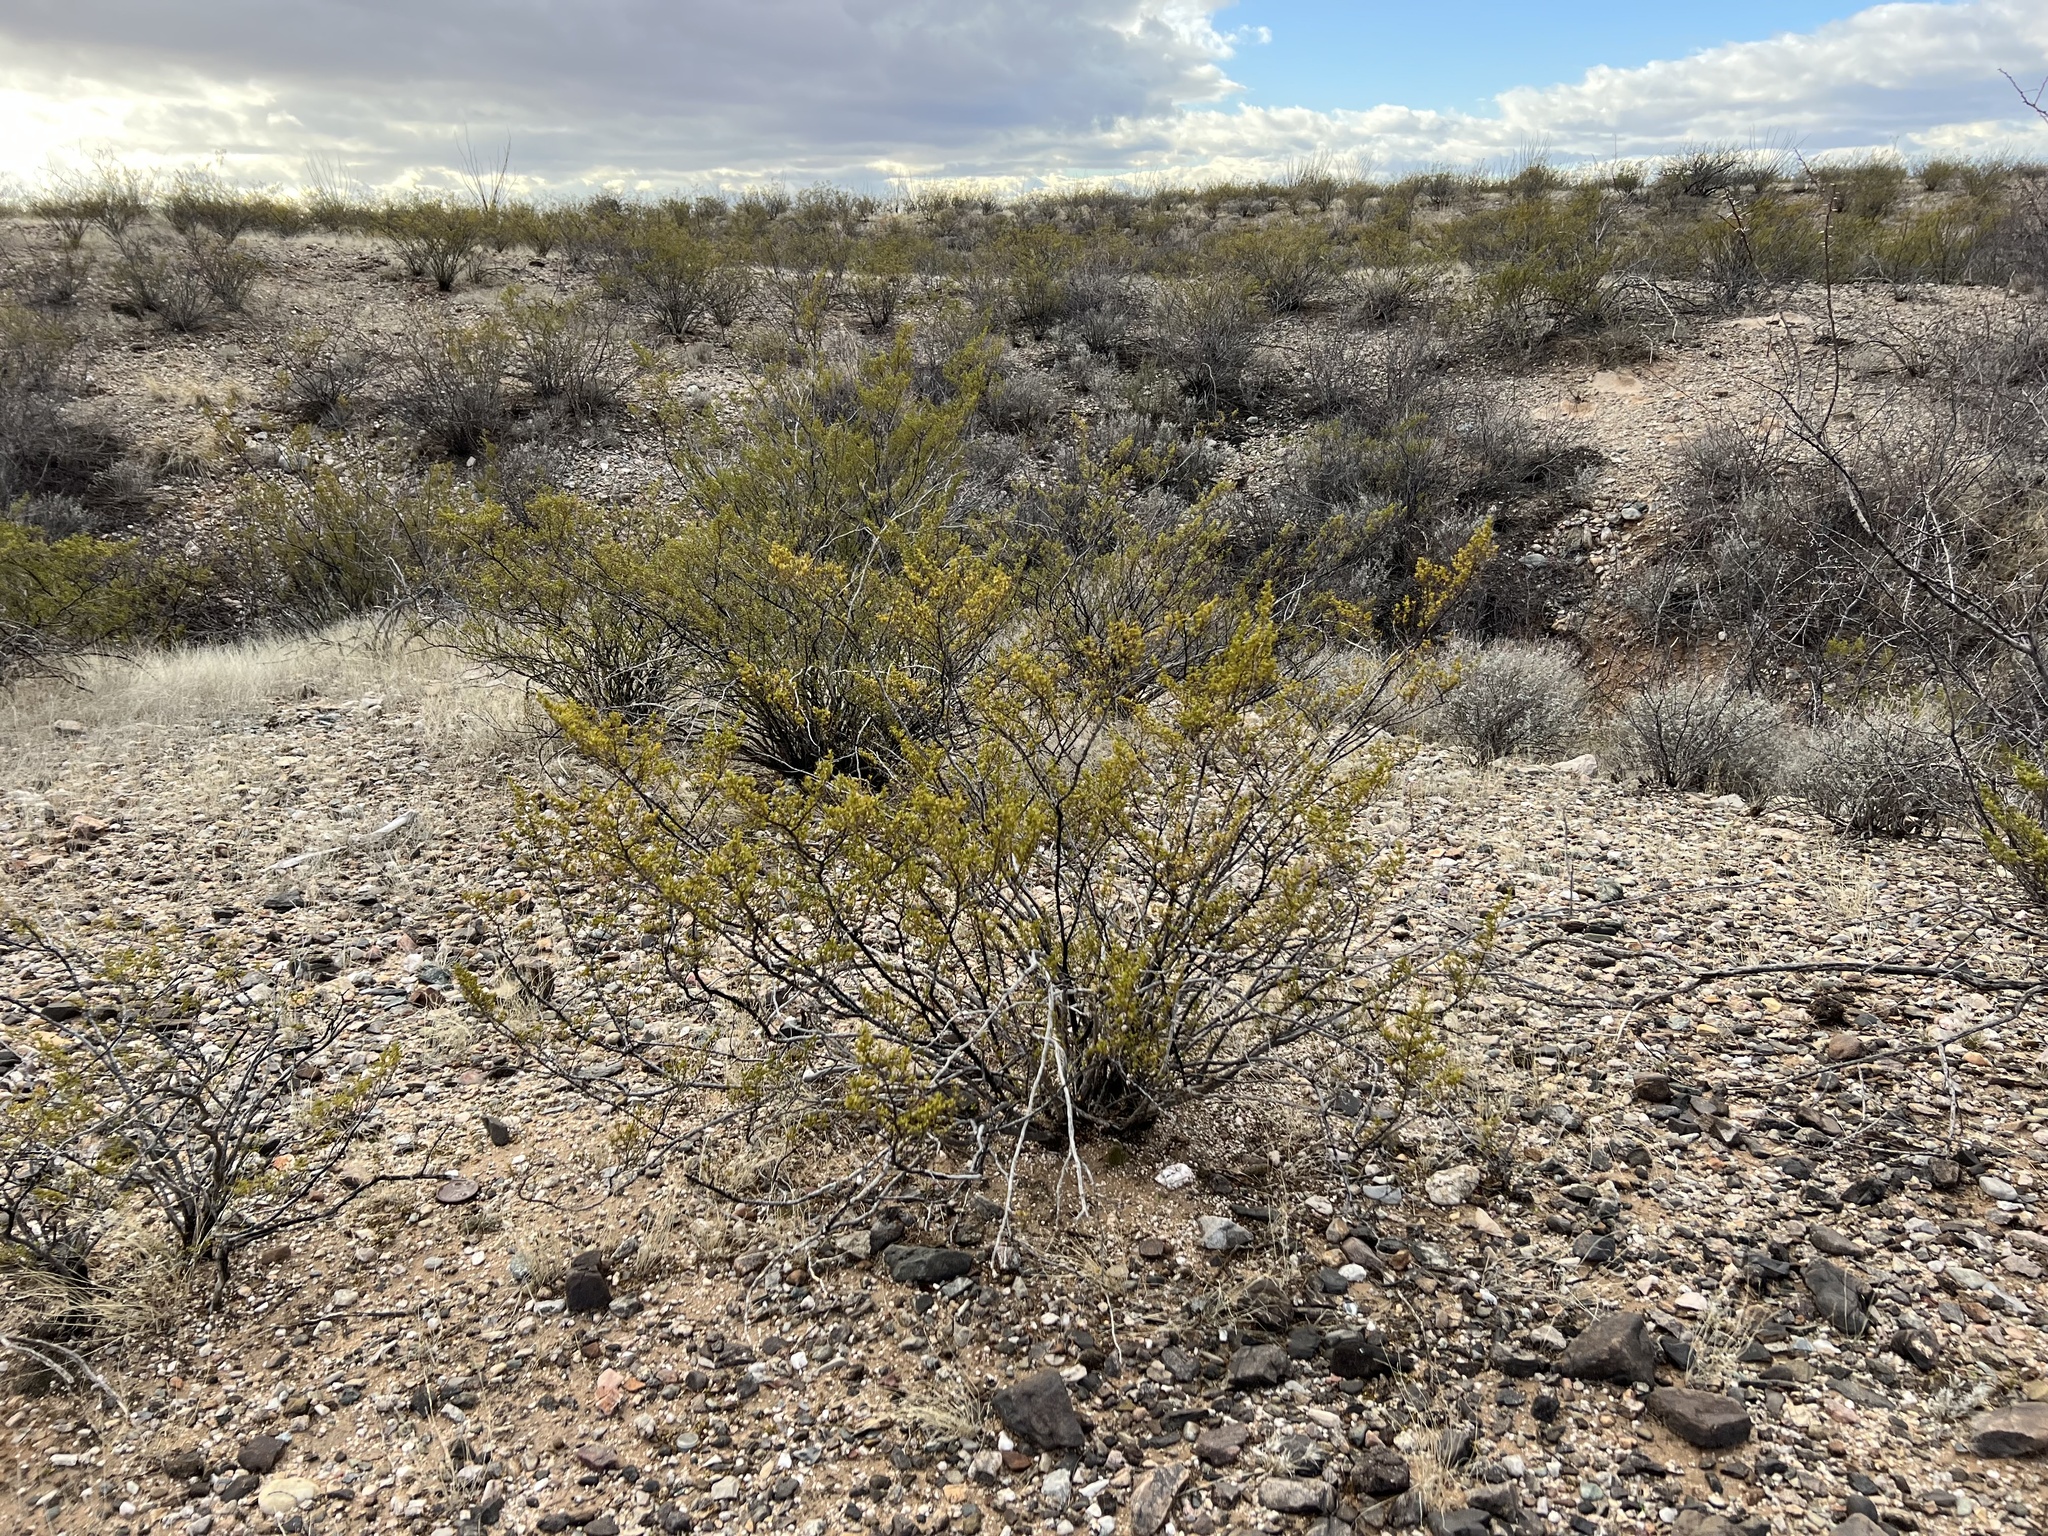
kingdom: Plantae
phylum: Tracheophyta
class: Magnoliopsida
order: Zygophyllales
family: Zygophyllaceae
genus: Larrea
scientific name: Larrea tridentata
